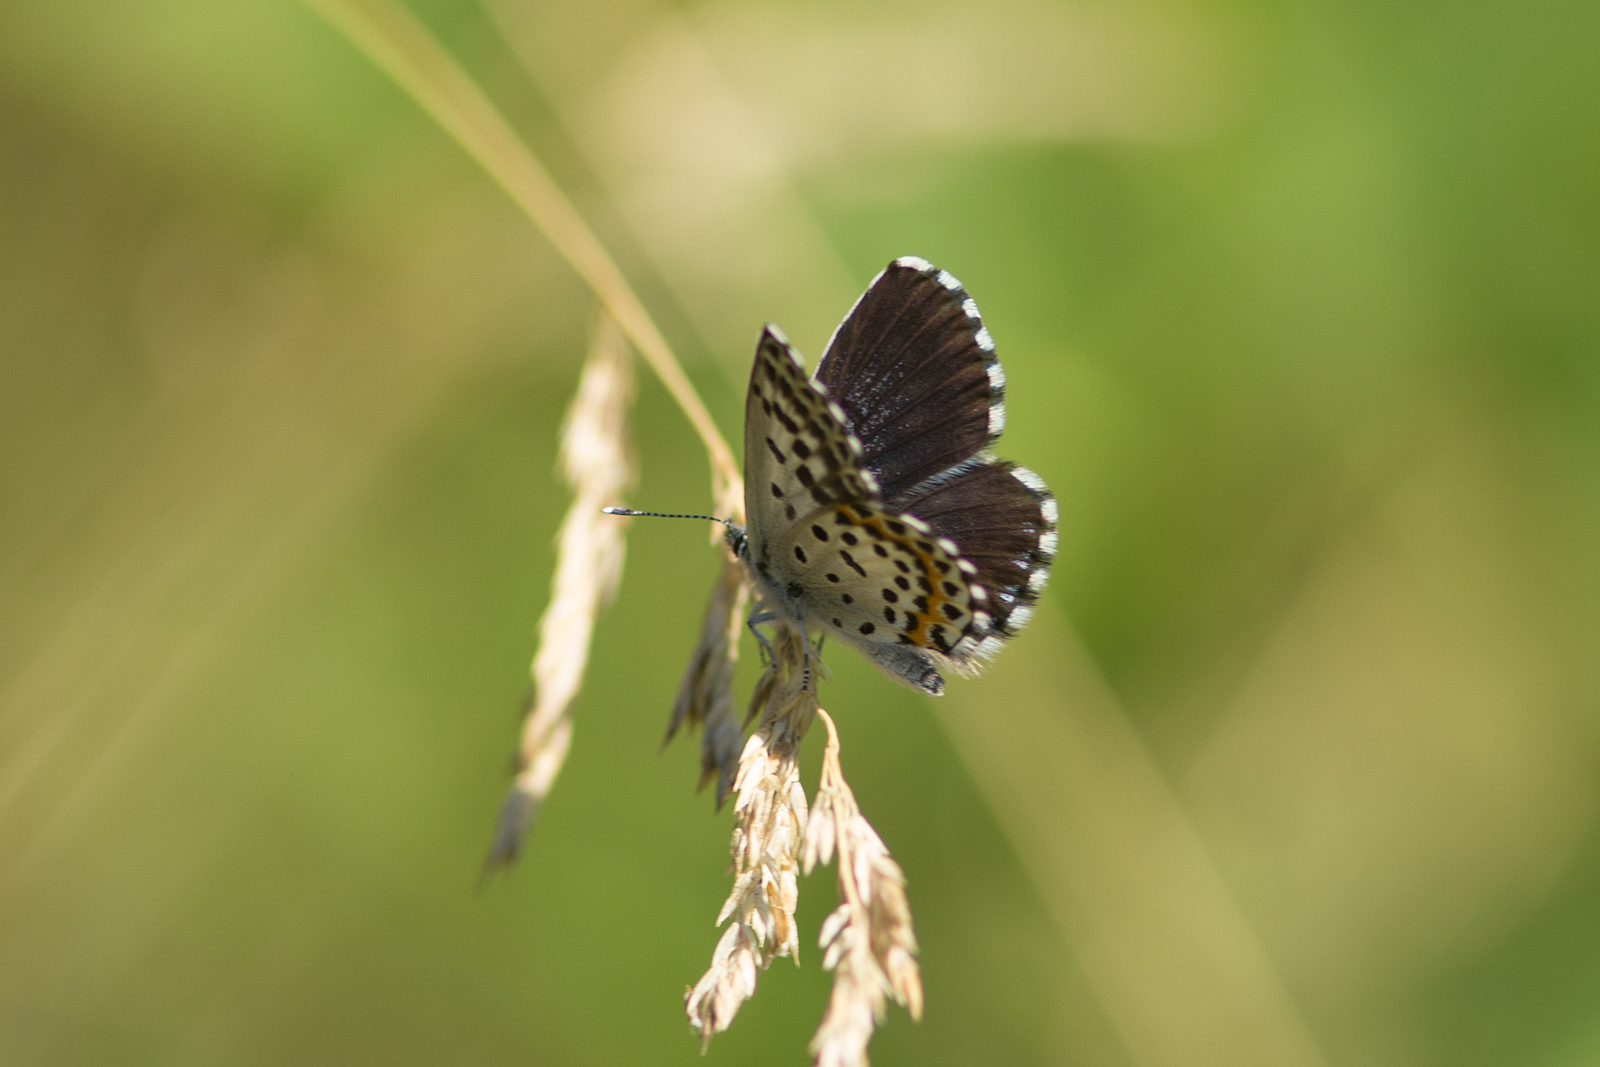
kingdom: Animalia
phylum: Arthropoda
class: Insecta
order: Lepidoptera
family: Lycaenidae
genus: Scolitantides
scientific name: Scolitantides orion
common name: Chequered blue
